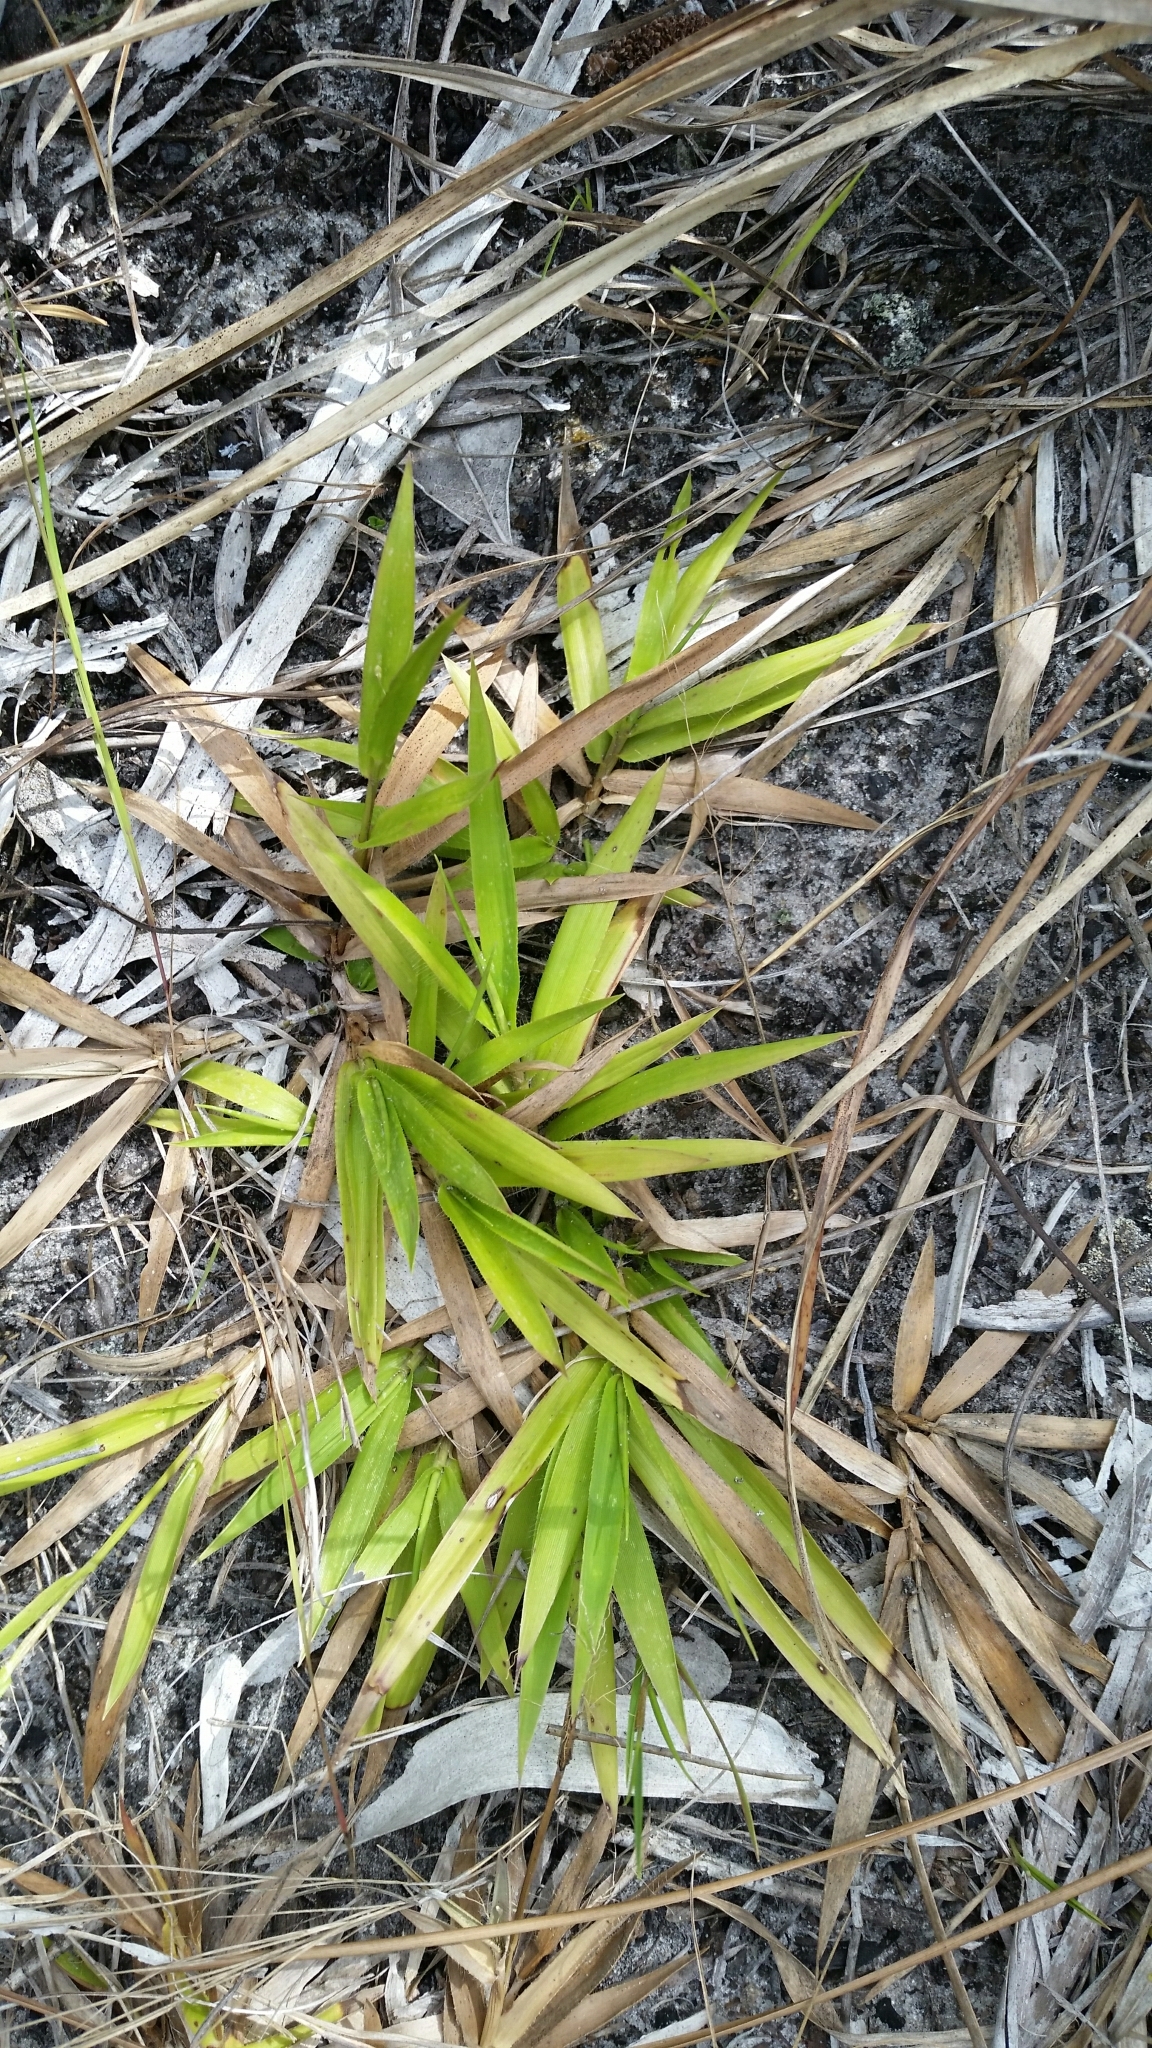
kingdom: Plantae
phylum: Tracheophyta
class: Liliopsida
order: Poales
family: Poaceae
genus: Dichanthelium
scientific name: Dichanthelium strigosum
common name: Cushion-tuft panic grass
